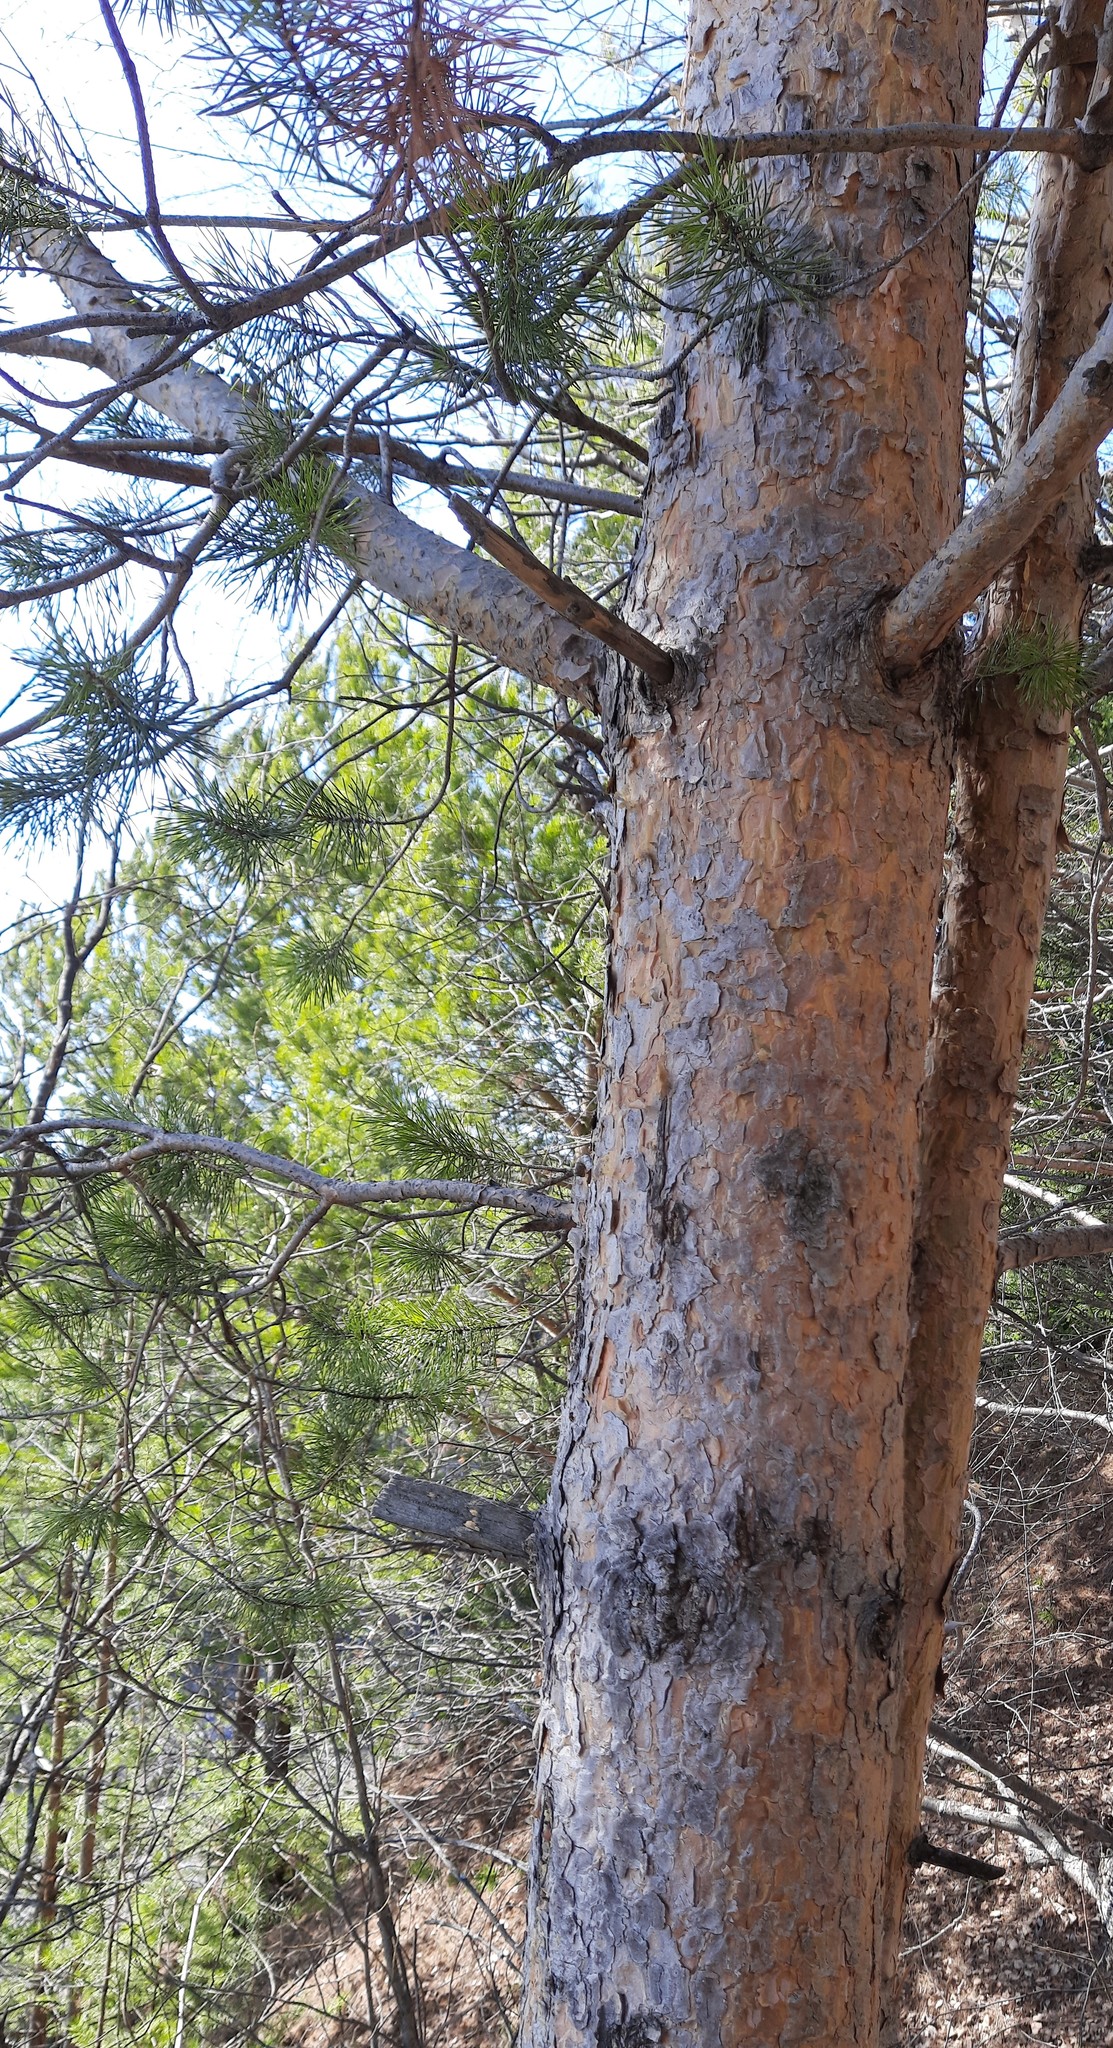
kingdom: Plantae
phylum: Tracheophyta
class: Pinopsida
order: Pinales
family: Pinaceae
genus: Pinus
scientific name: Pinus sylvestris
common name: Scots pine
